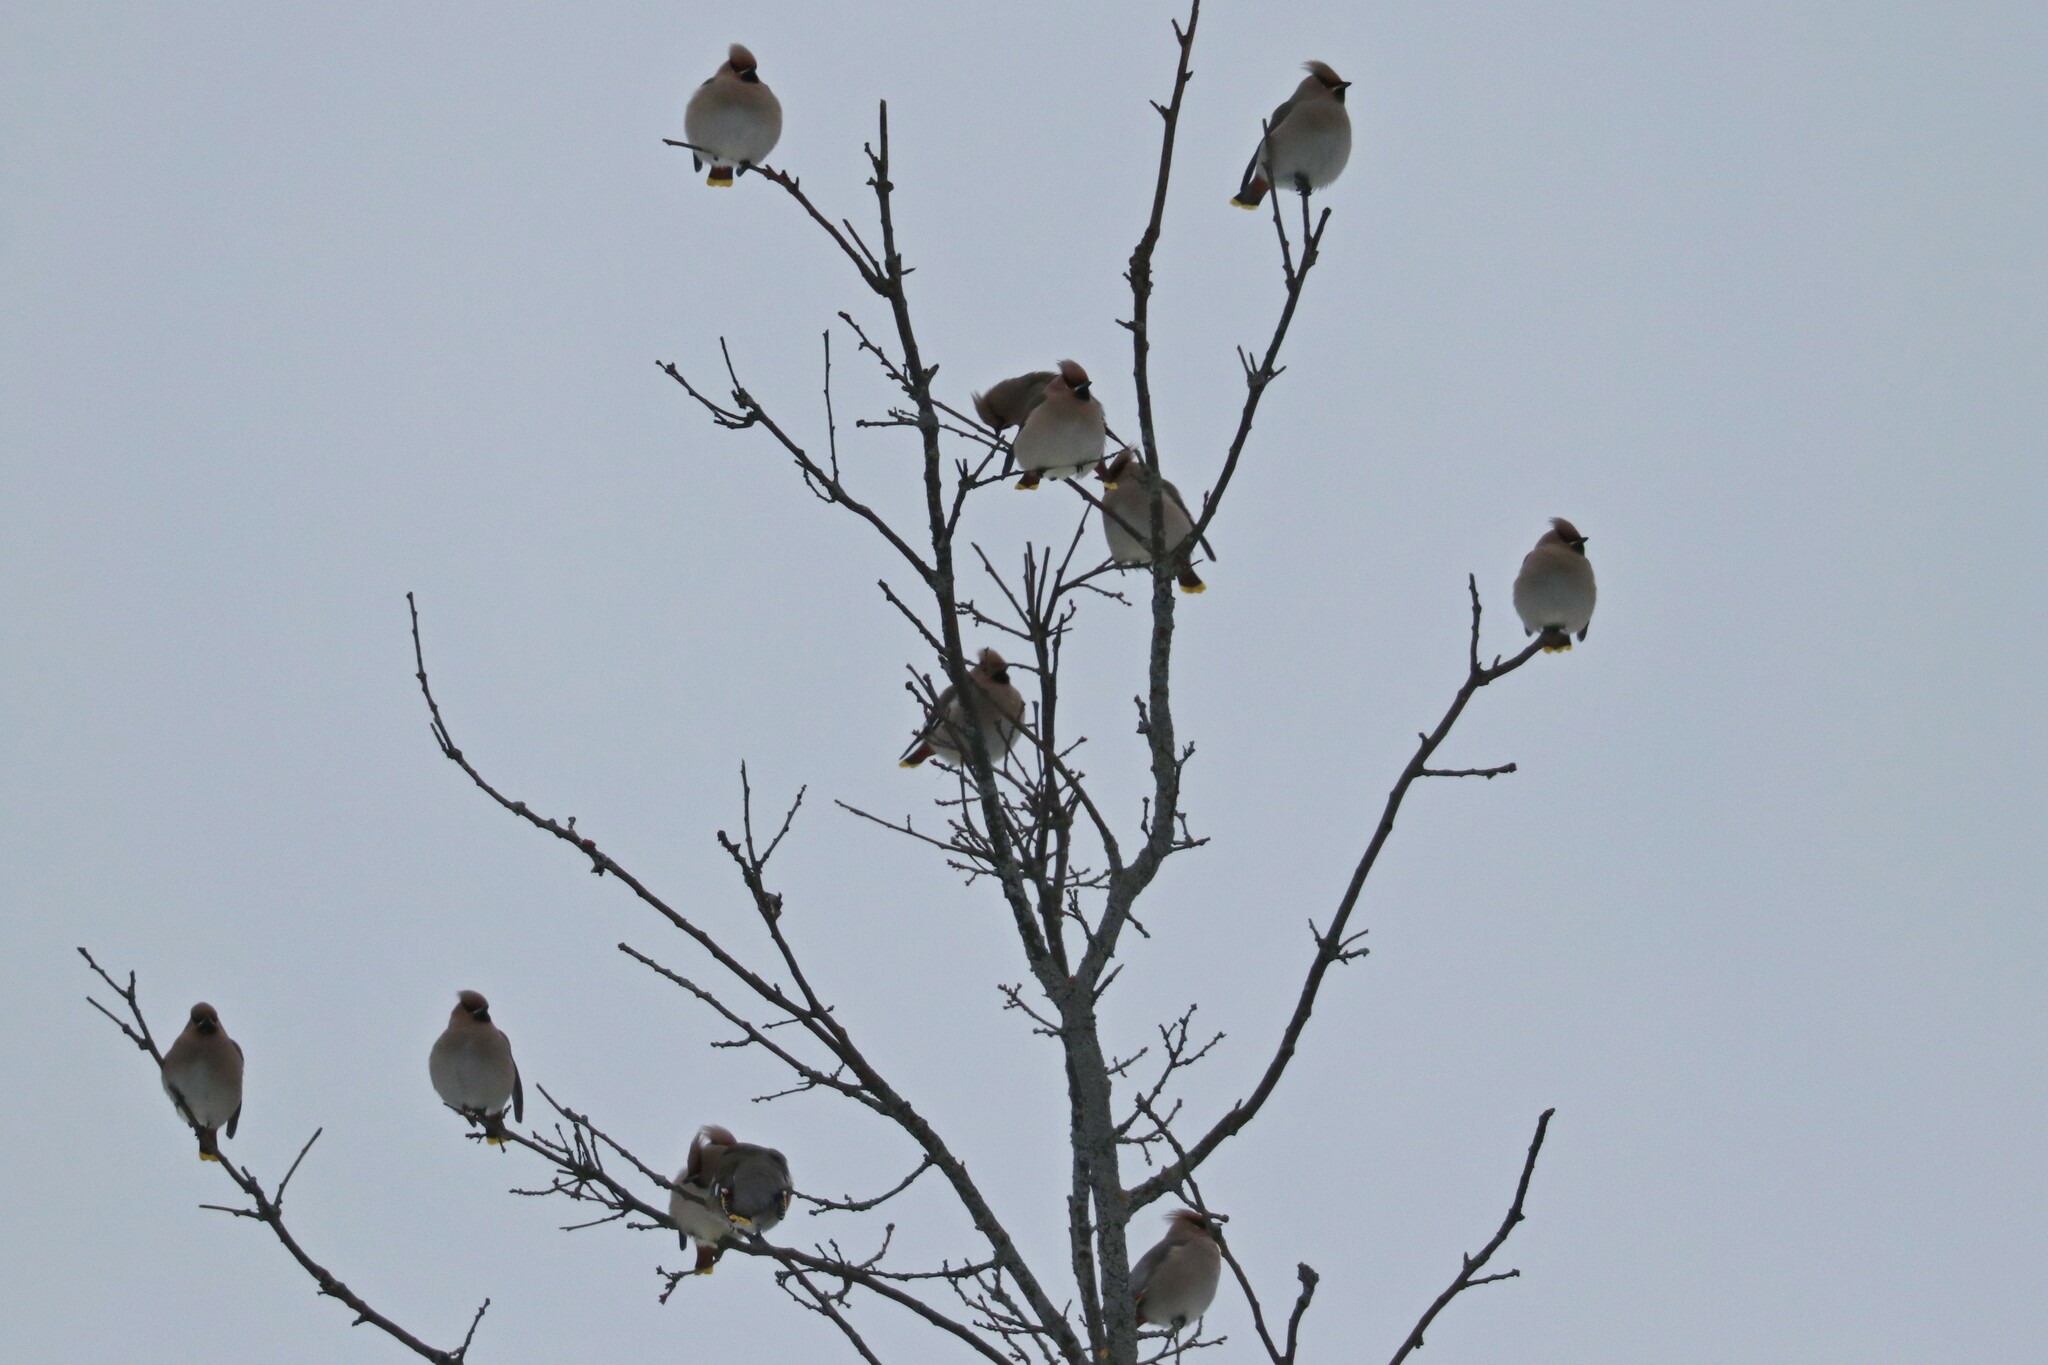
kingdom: Animalia
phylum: Chordata
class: Aves
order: Passeriformes
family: Bombycillidae
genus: Bombycilla
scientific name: Bombycilla garrulus
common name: Bohemian waxwing
